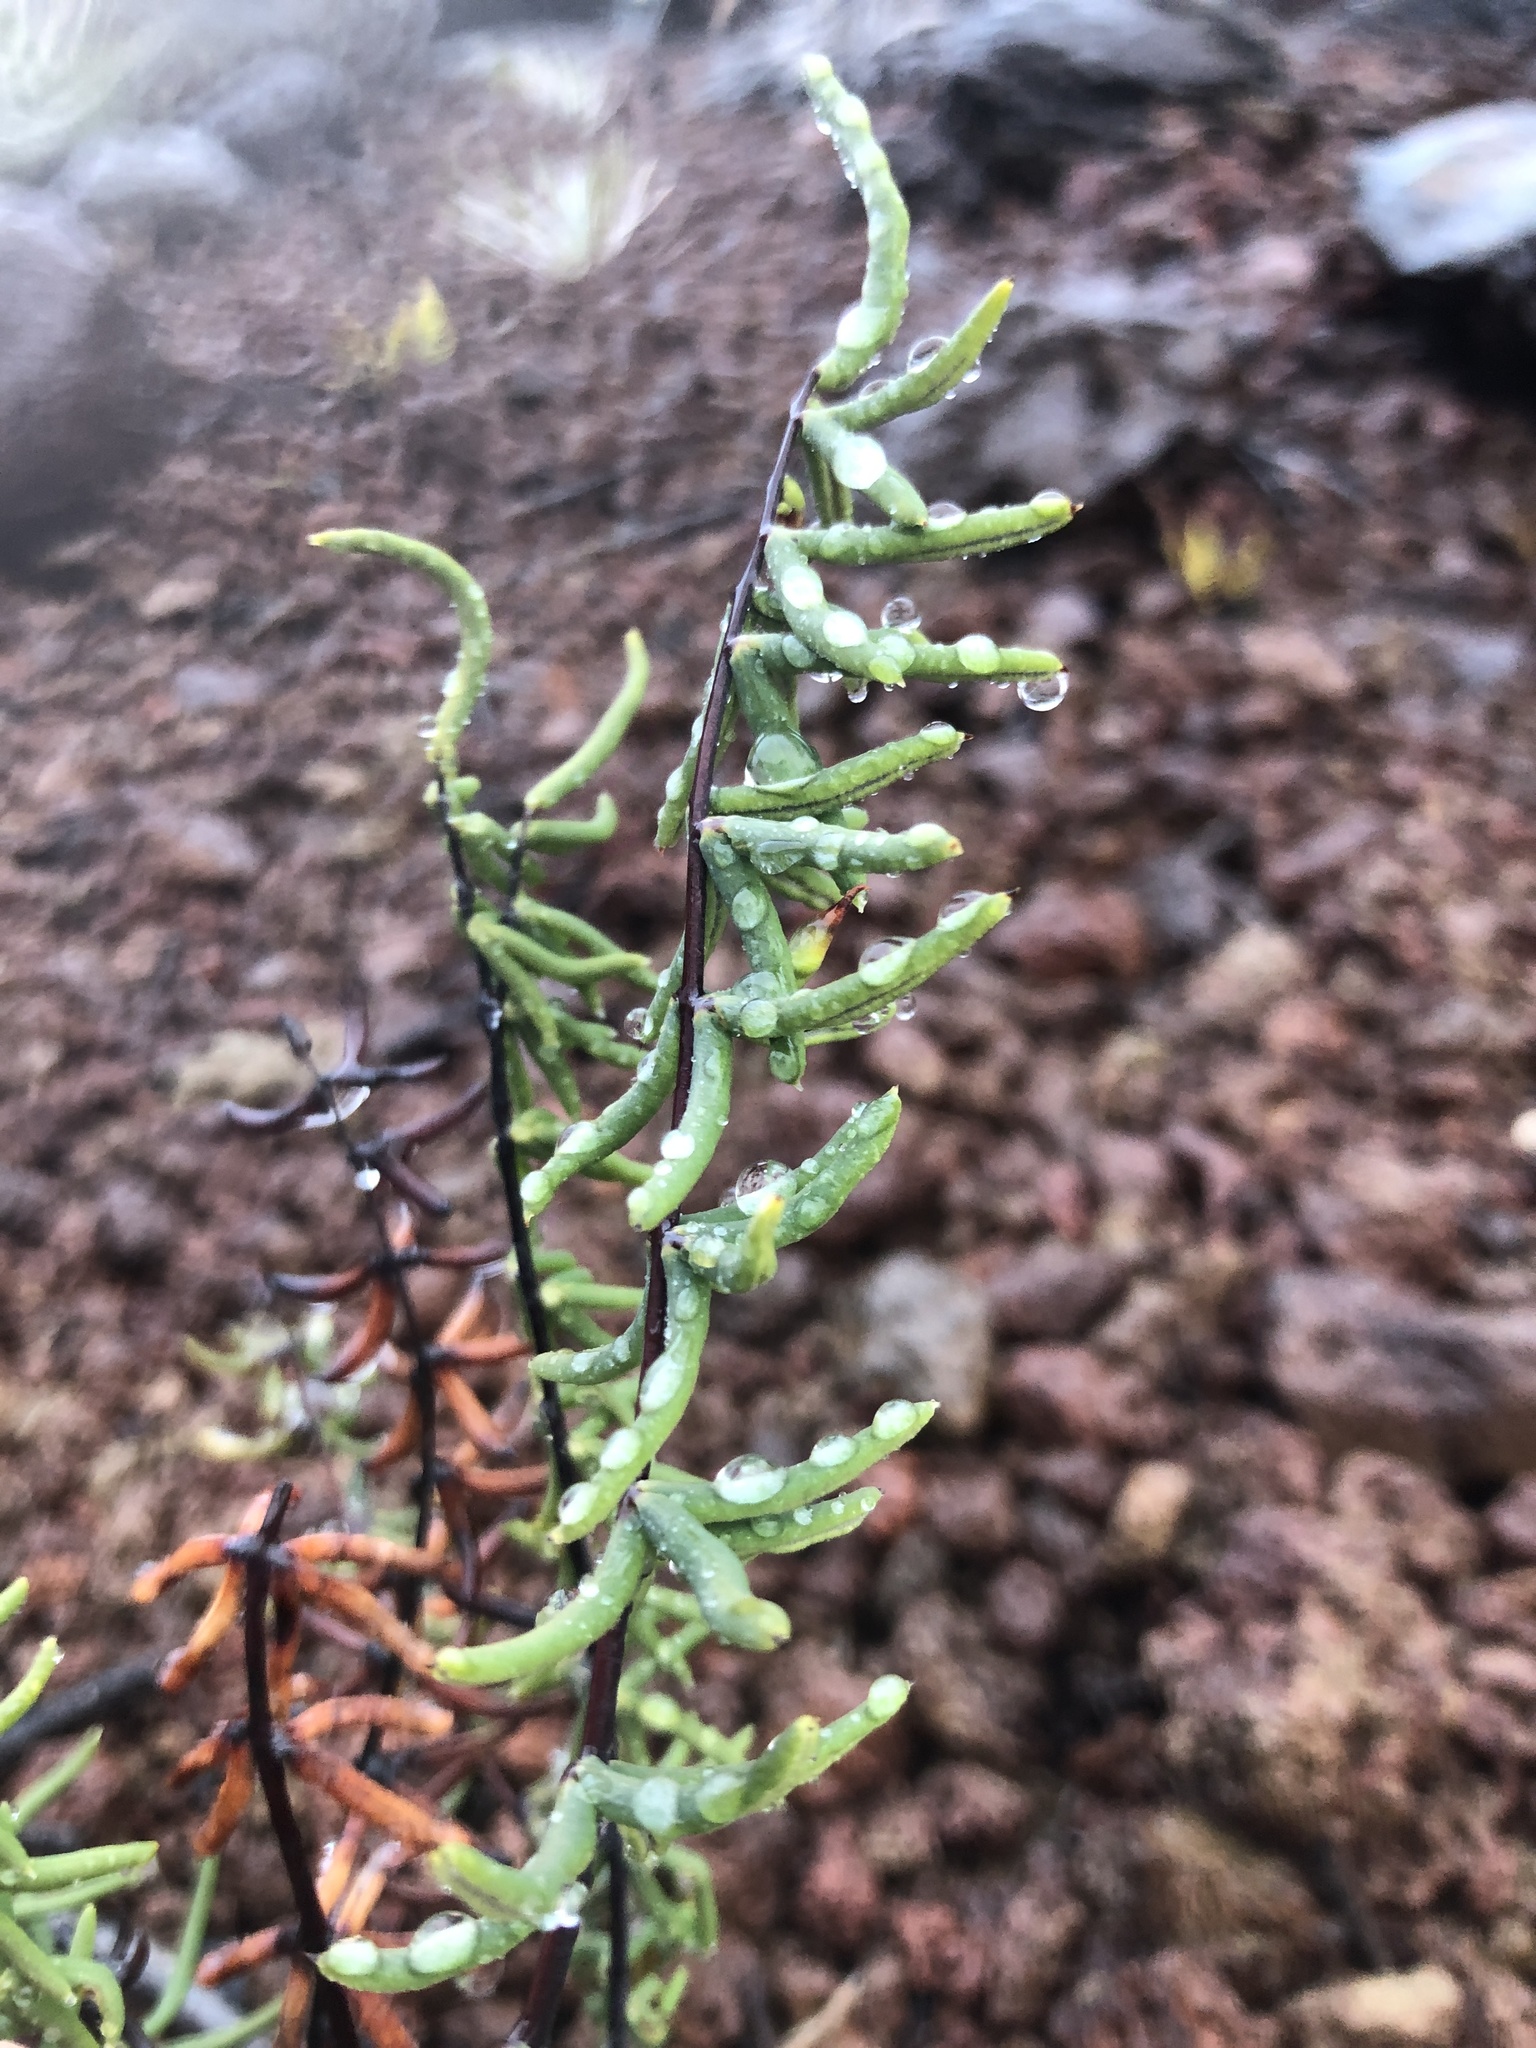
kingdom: Plantae
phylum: Tracheophyta
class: Polypodiopsida
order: Polypodiales
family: Pteridaceae
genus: Pellaea
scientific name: Pellaea ternifolia
